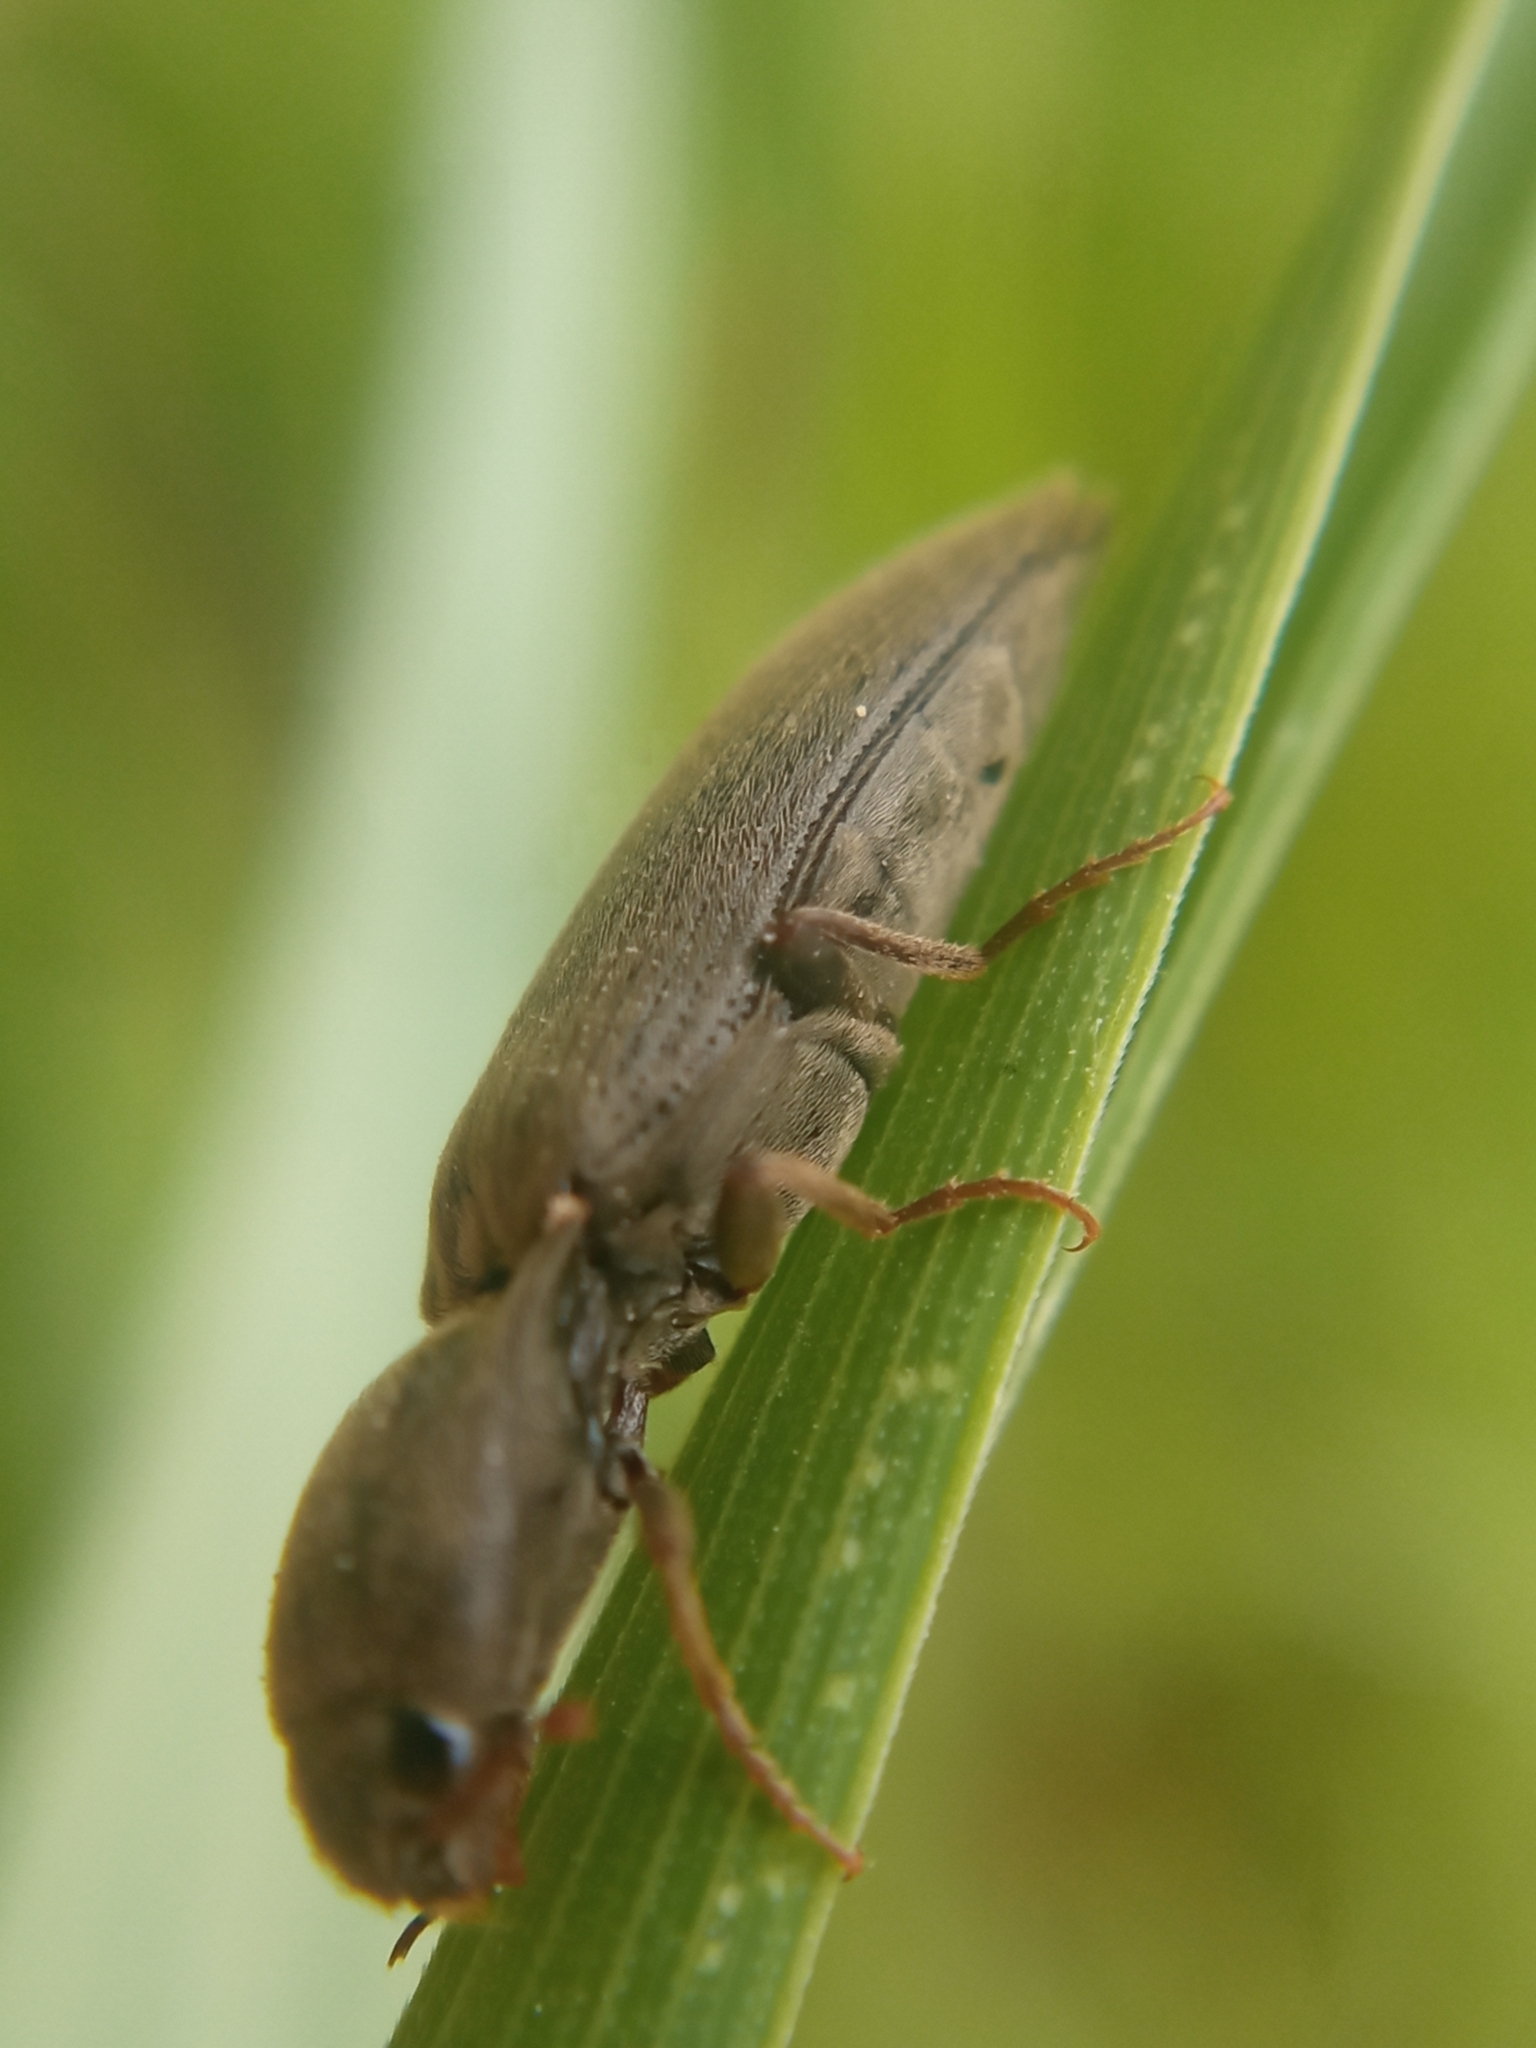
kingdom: Animalia
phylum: Arthropoda
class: Insecta
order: Coleoptera
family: Elateridae
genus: Agriotes
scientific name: Agriotes pilosellus
